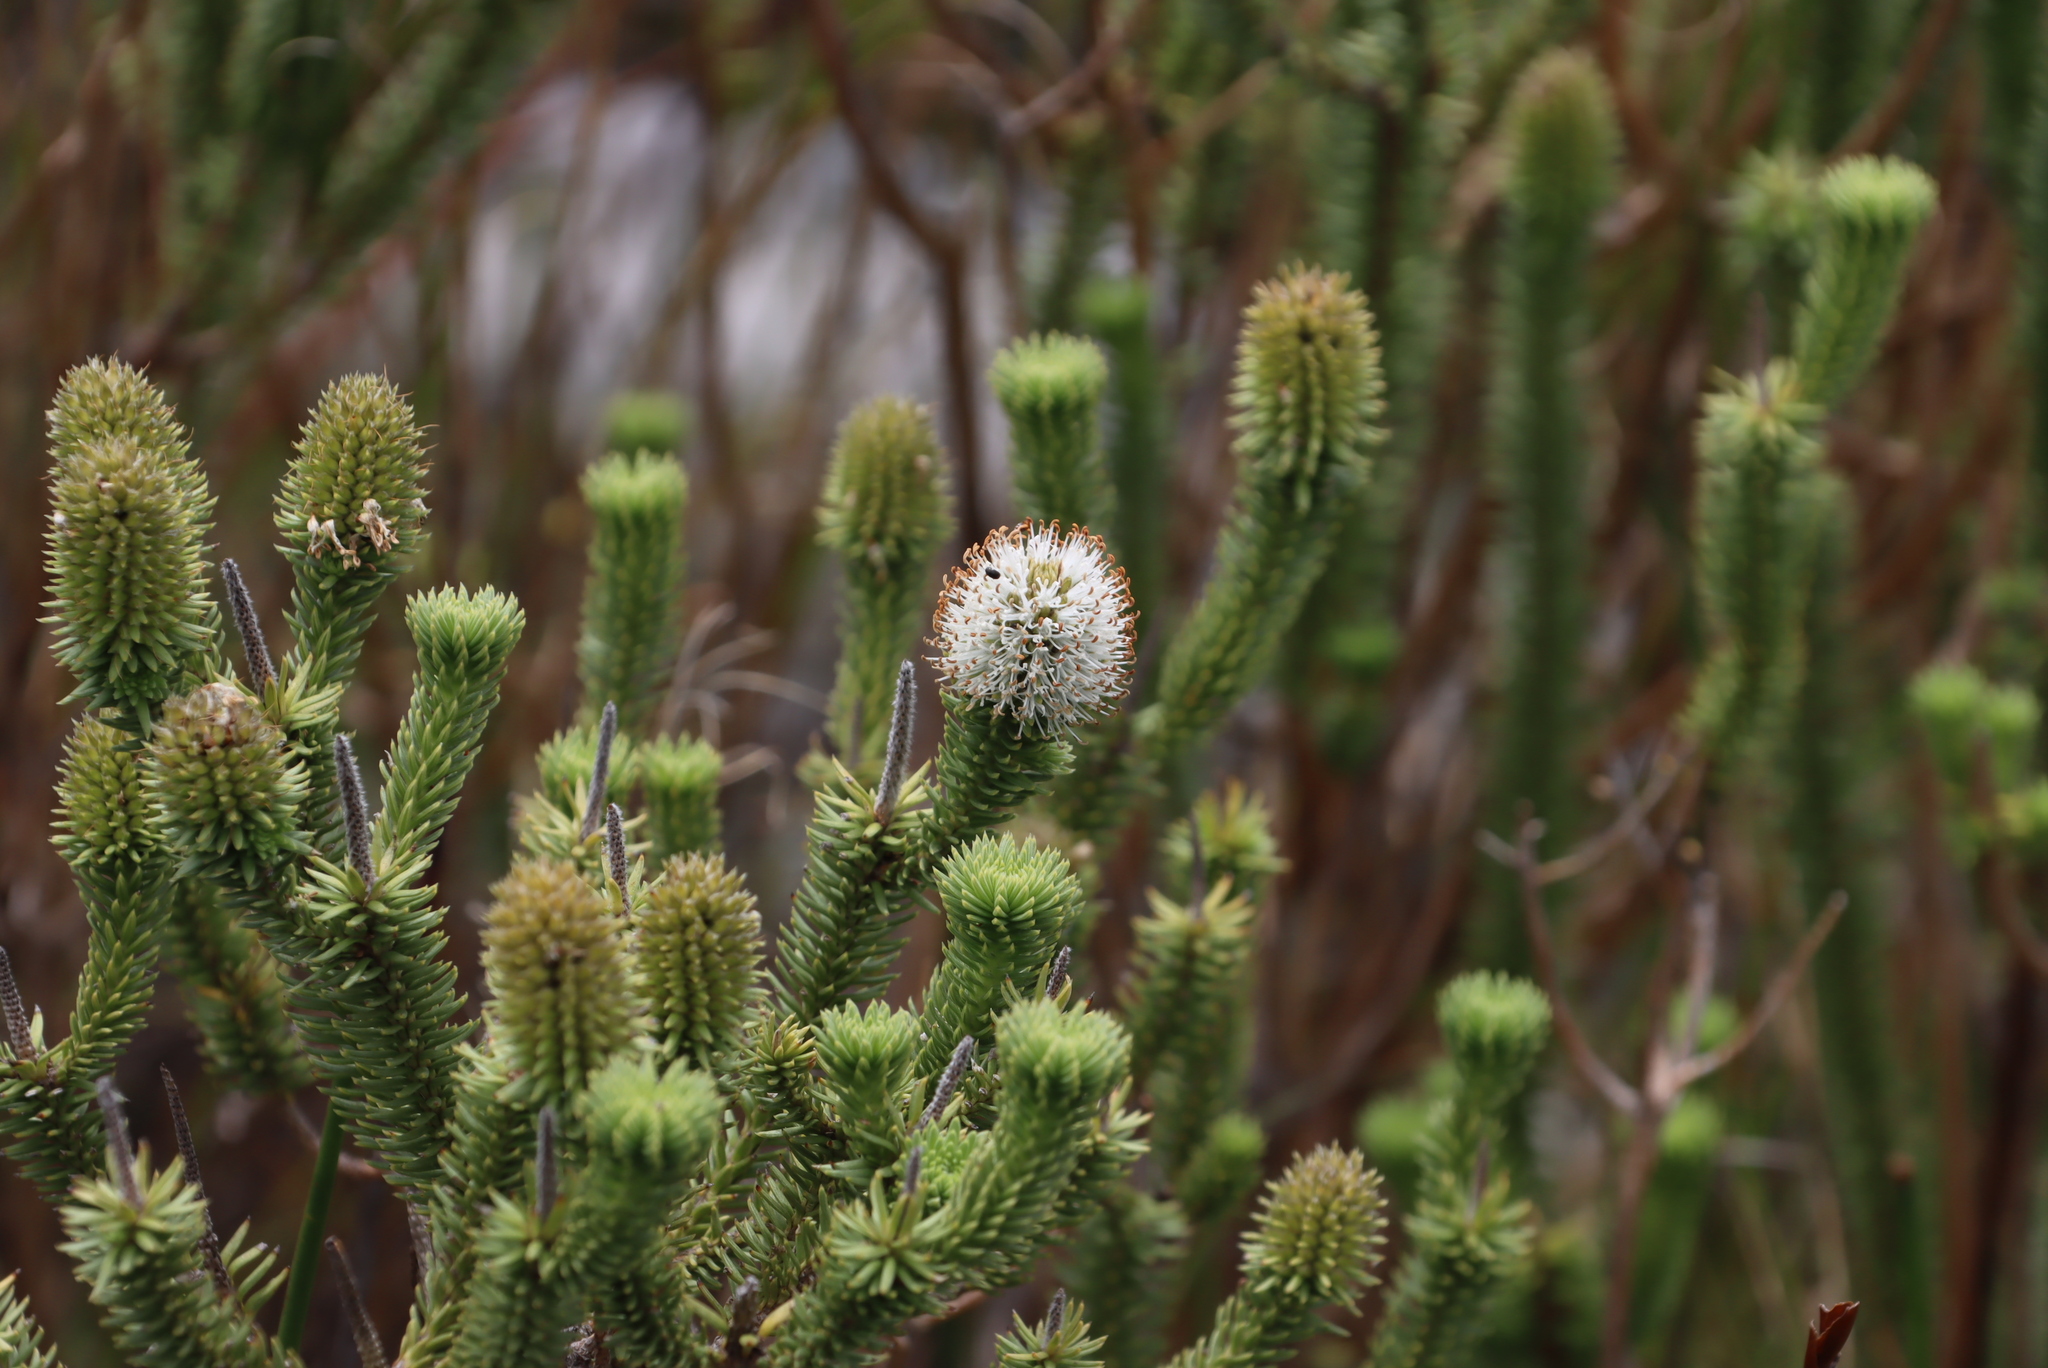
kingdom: Plantae
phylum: Tracheophyta
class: Magnoliopsida
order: Lamiales
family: Stilbaceae
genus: Stilbe
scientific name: Stilbe vestita
